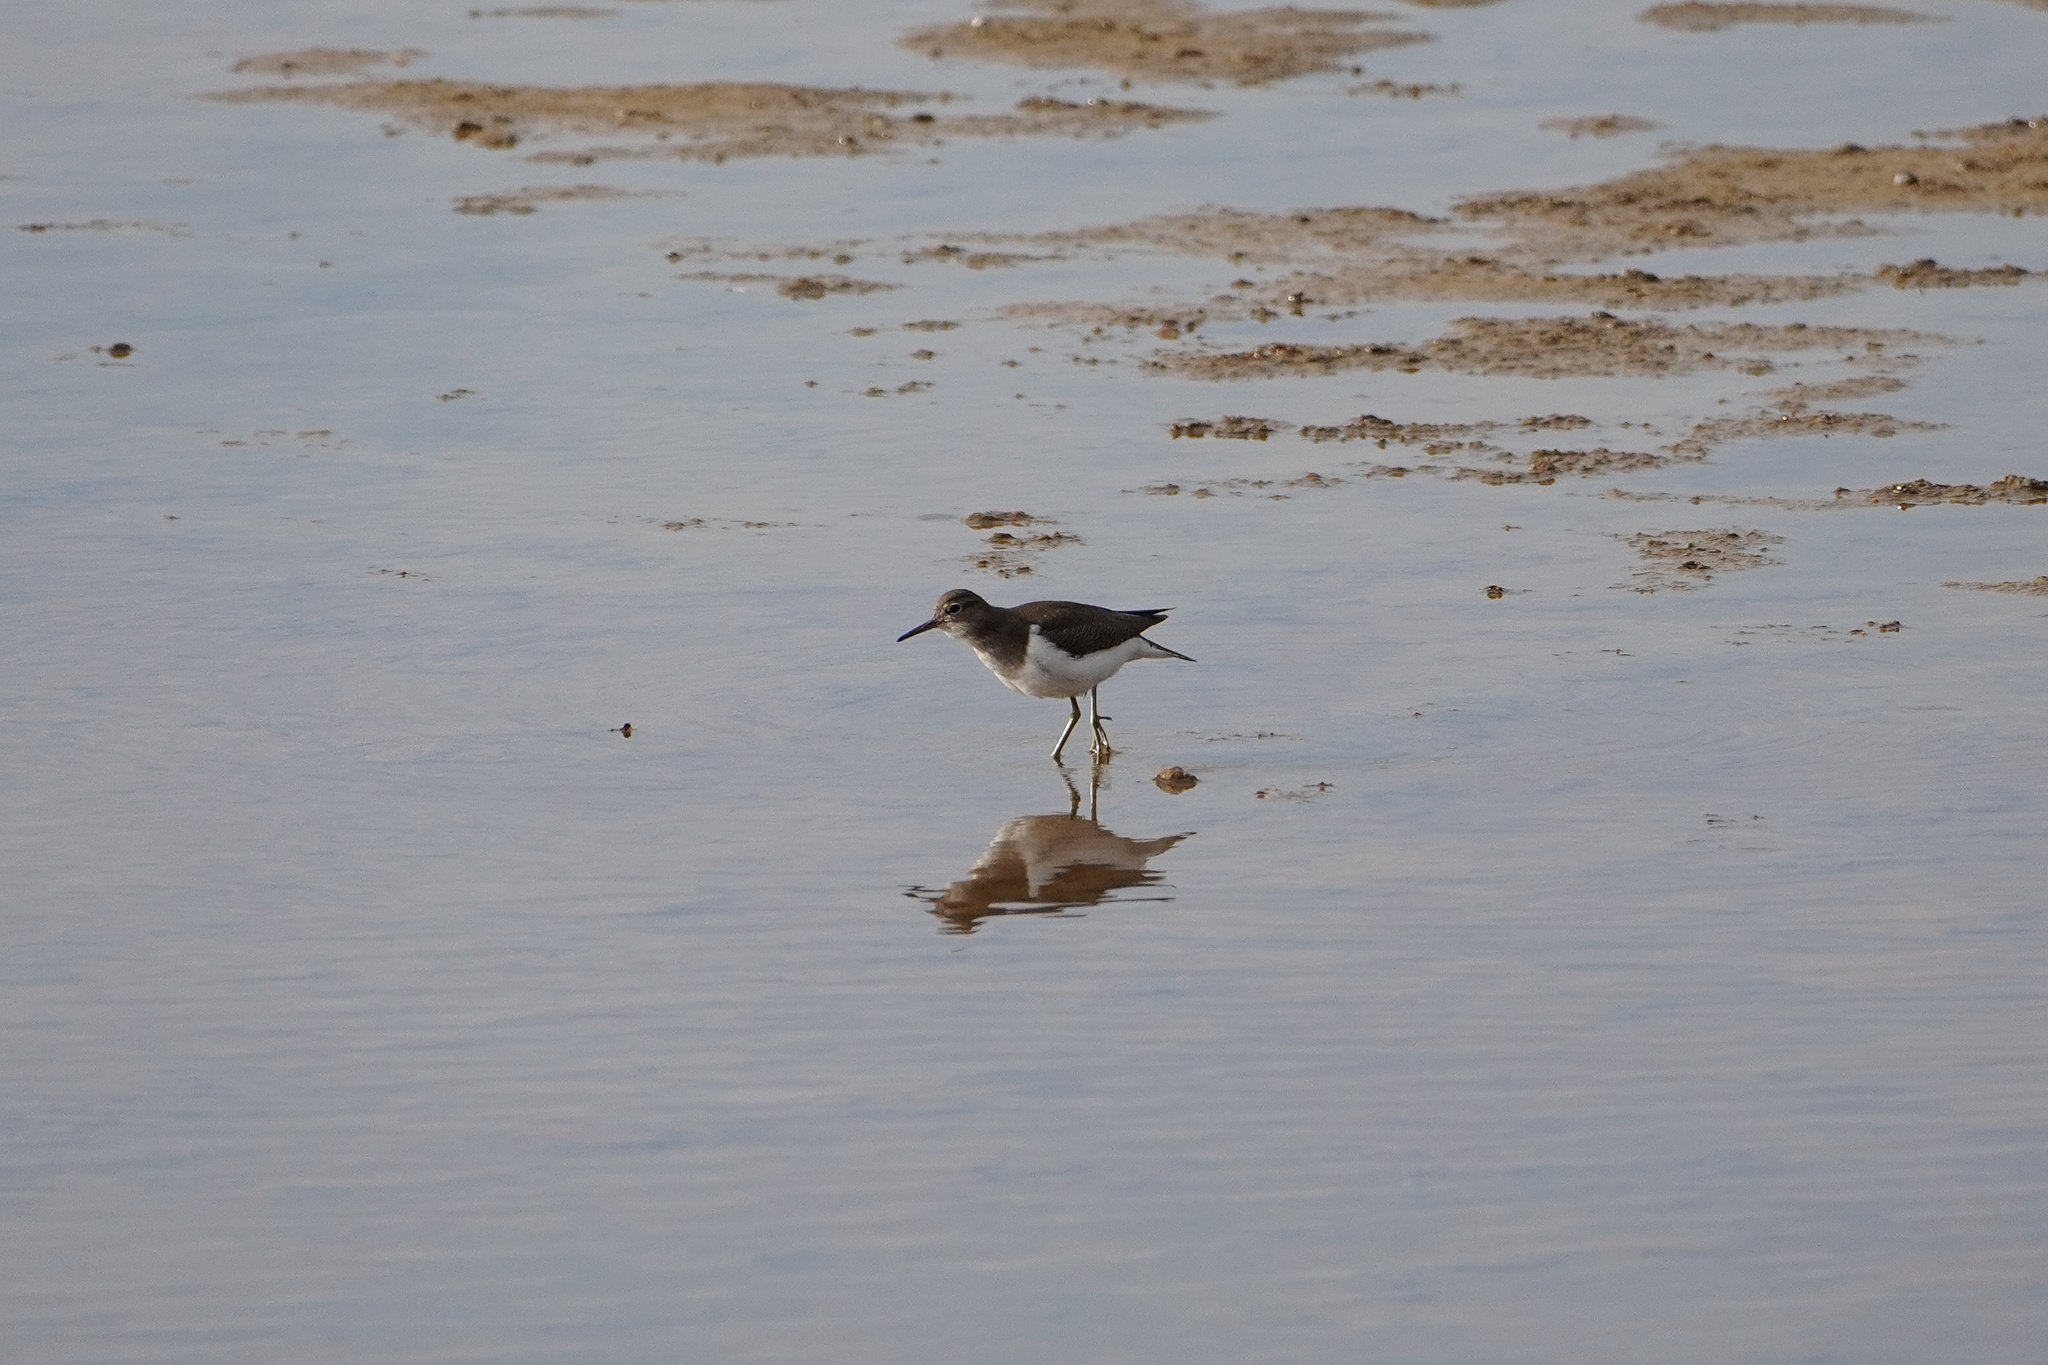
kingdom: Animalia
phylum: Chordata
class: Aves
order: Charadriiformes
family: Scolopacidae
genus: Actitis
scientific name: Actitis hypoleucos
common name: Common sandpiper
